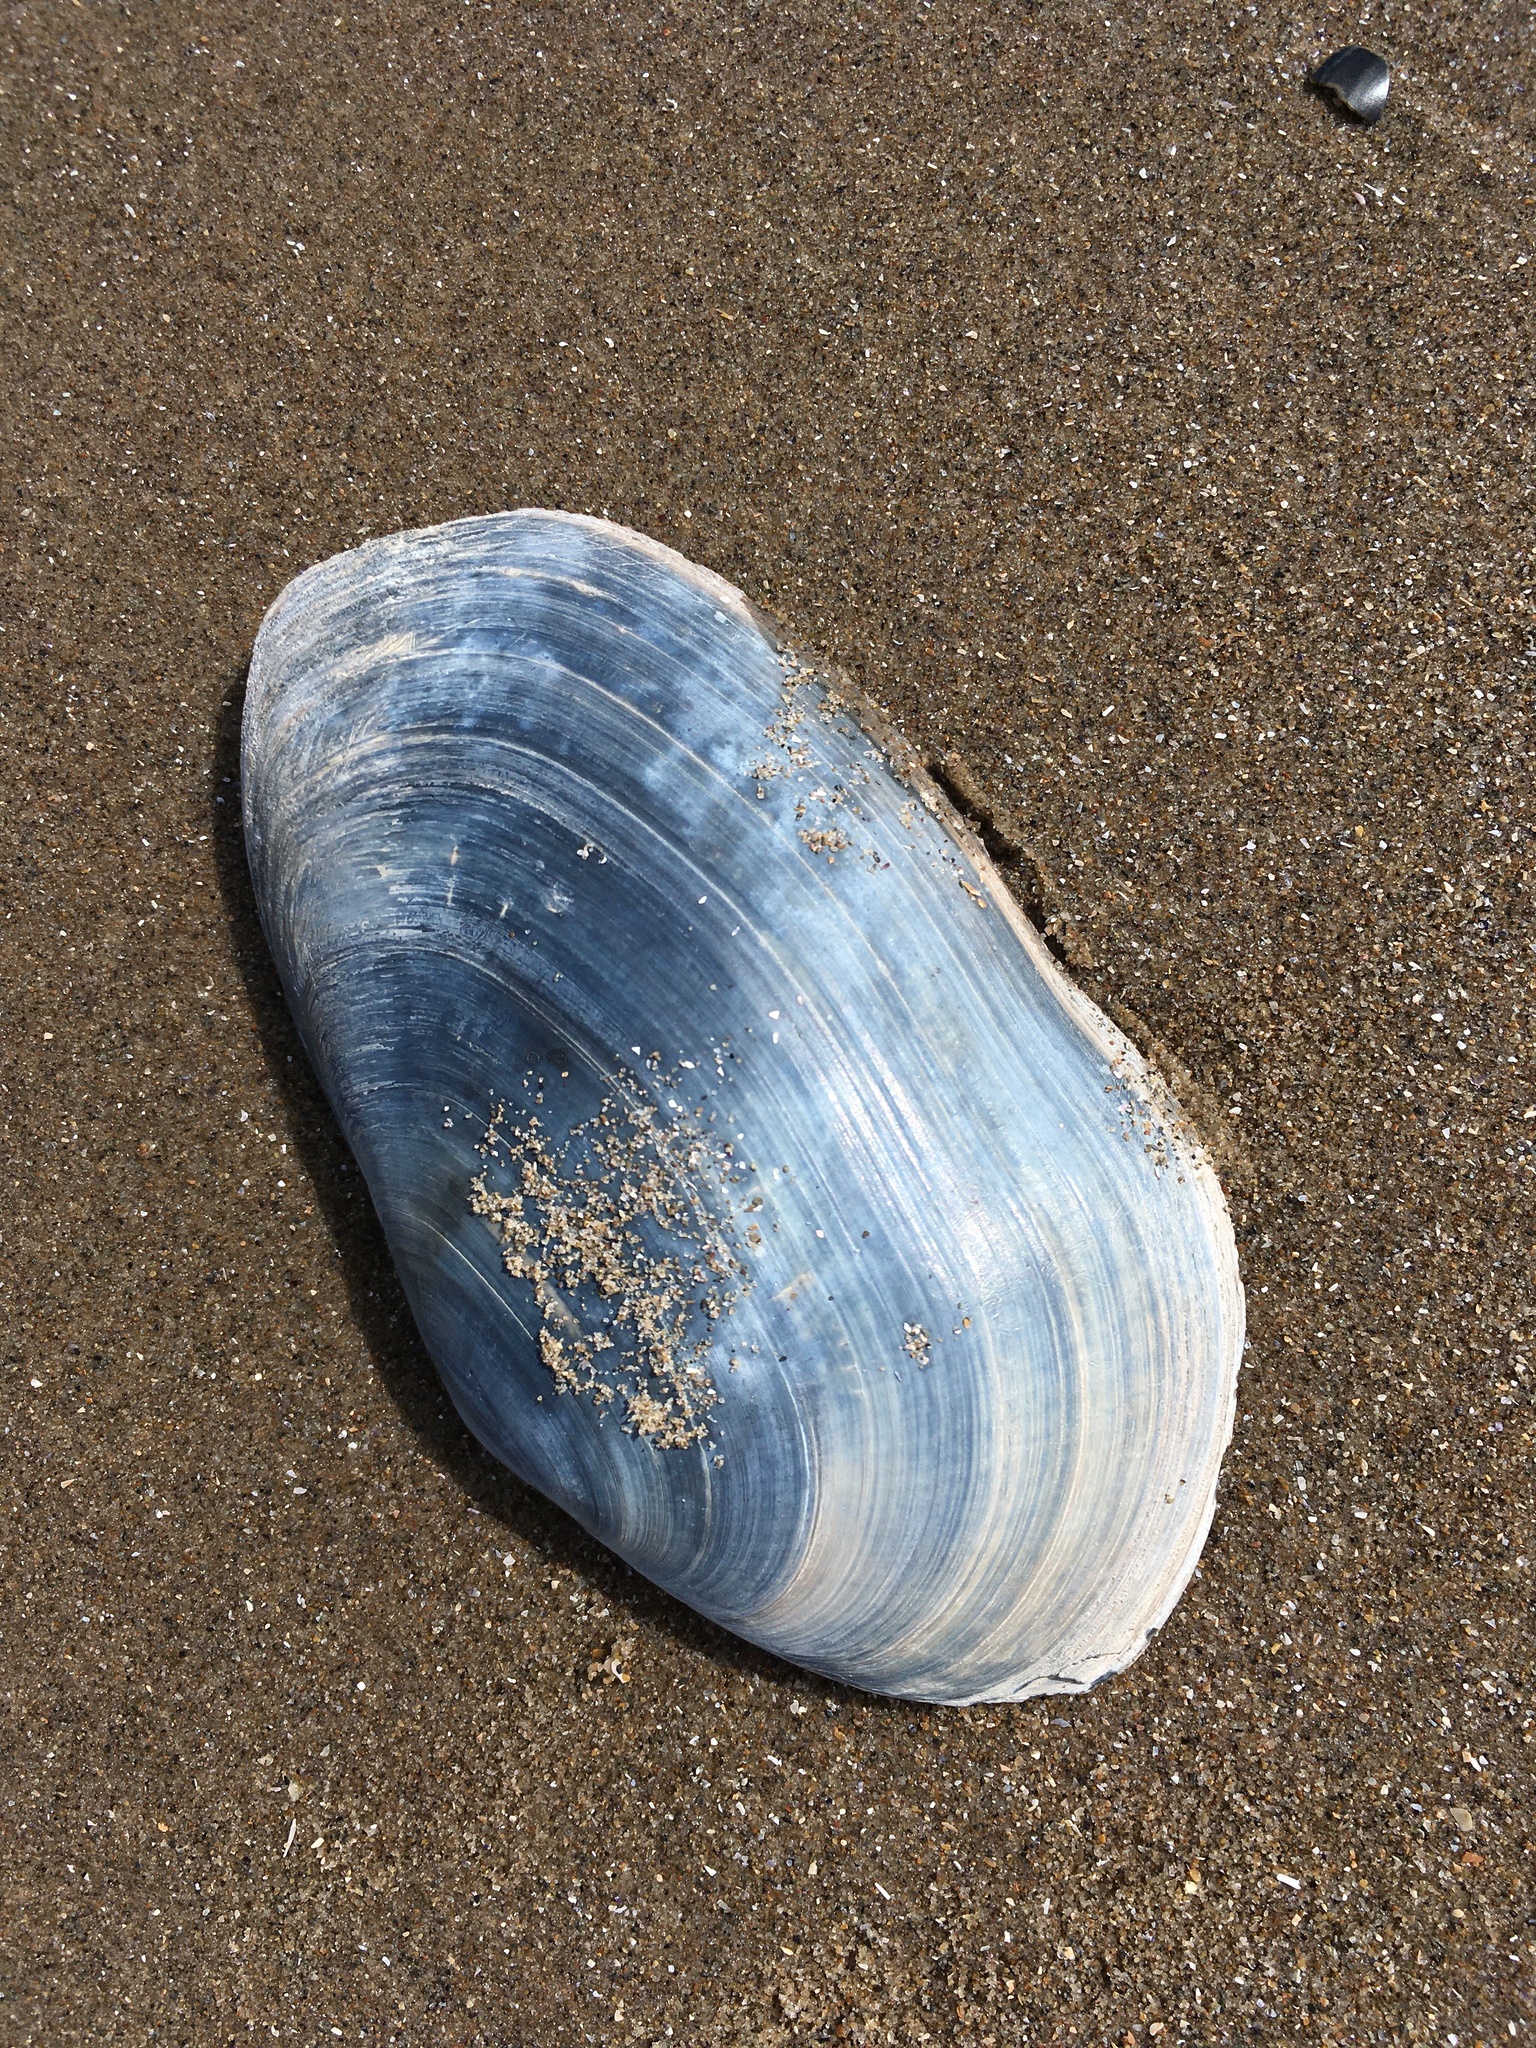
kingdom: Animalia
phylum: Mollusca
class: Bivalvia
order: Myida
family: Myidae
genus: Mya
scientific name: Mya arenaria
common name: Soft-shelled clam
